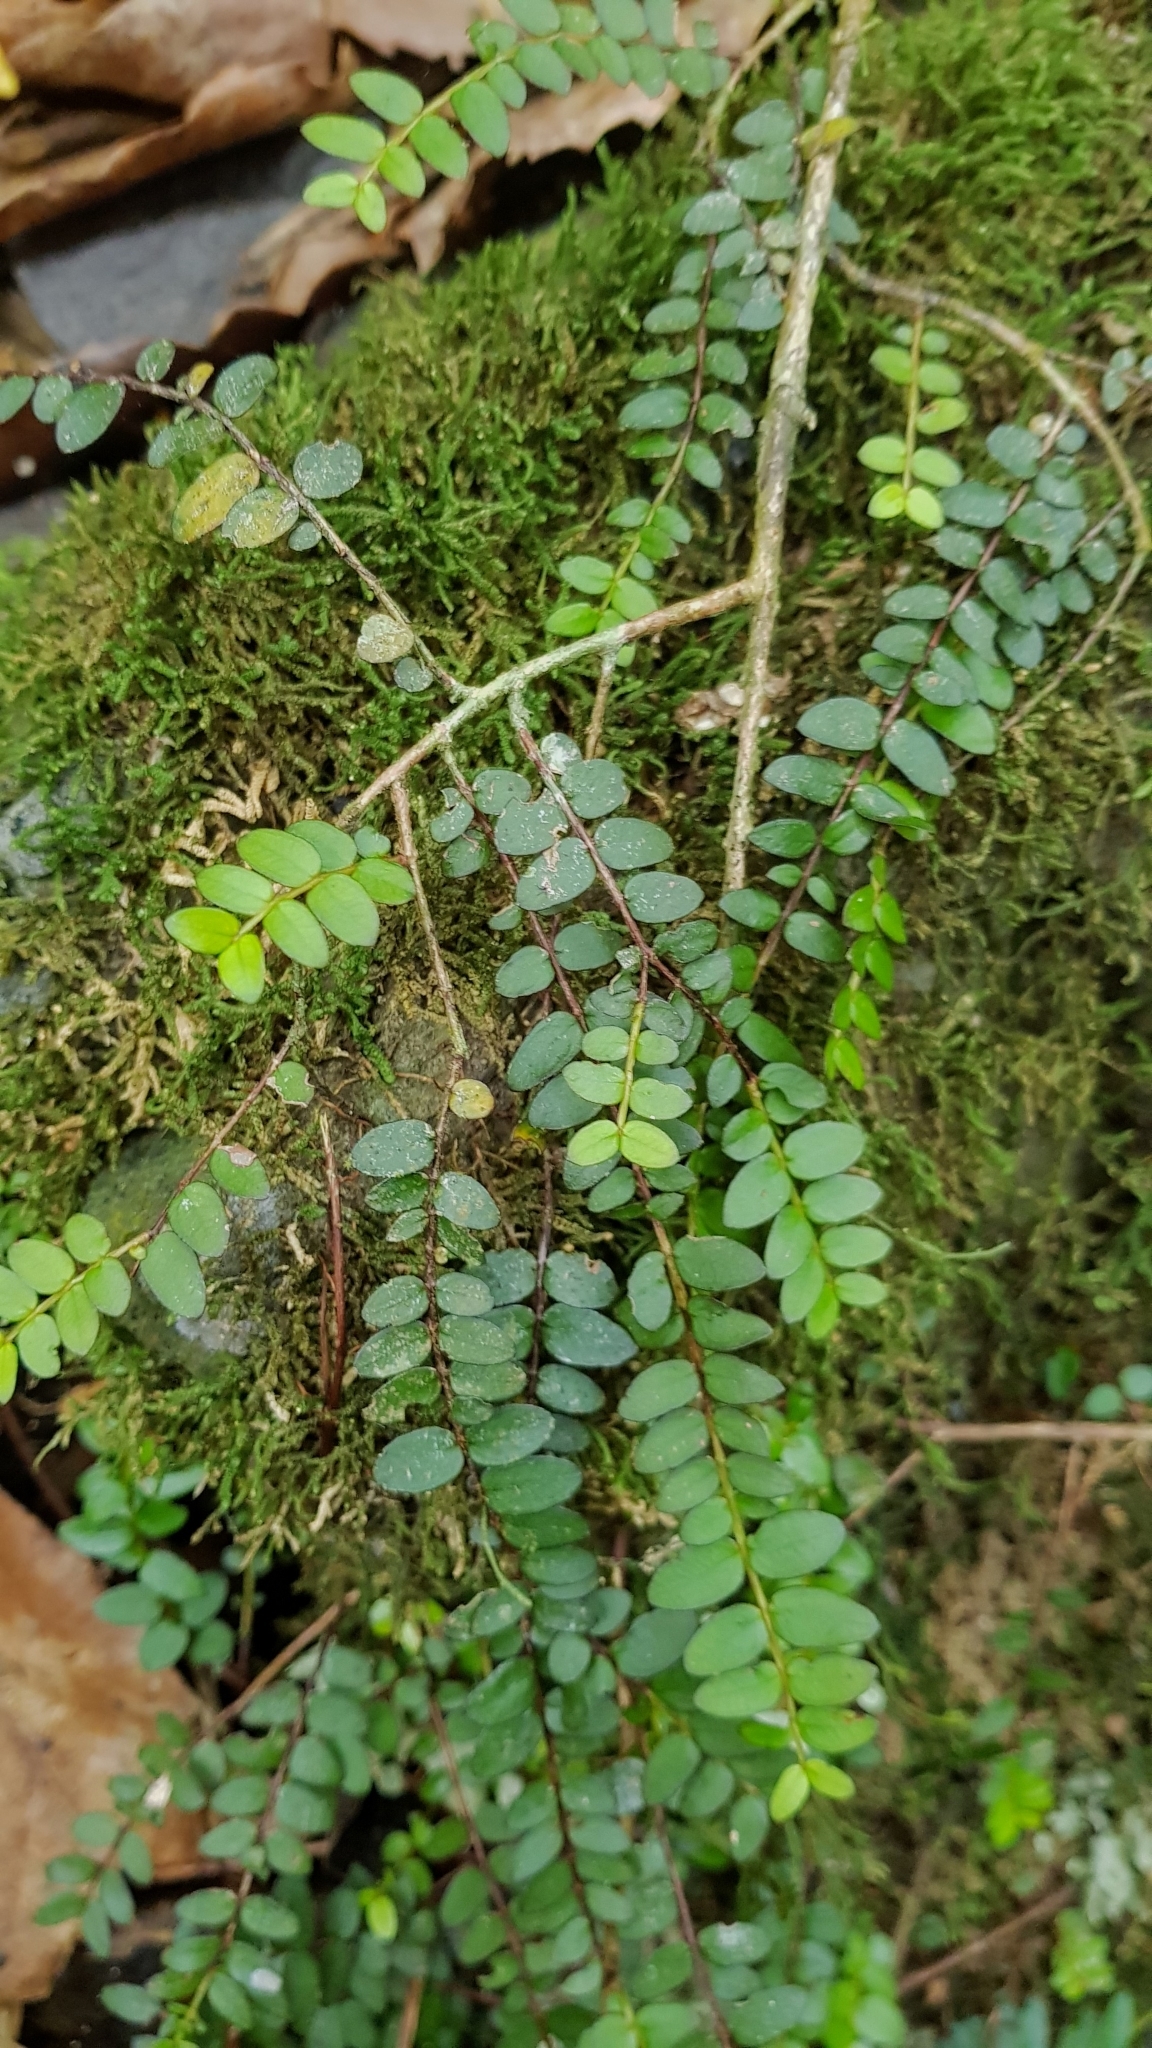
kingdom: Plantae
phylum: Tracheophyta
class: Magnoliopsida
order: Myrtales
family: Myrtaceae
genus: Metrosideros
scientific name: Metrosideros diffusa
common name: Small ratavine
